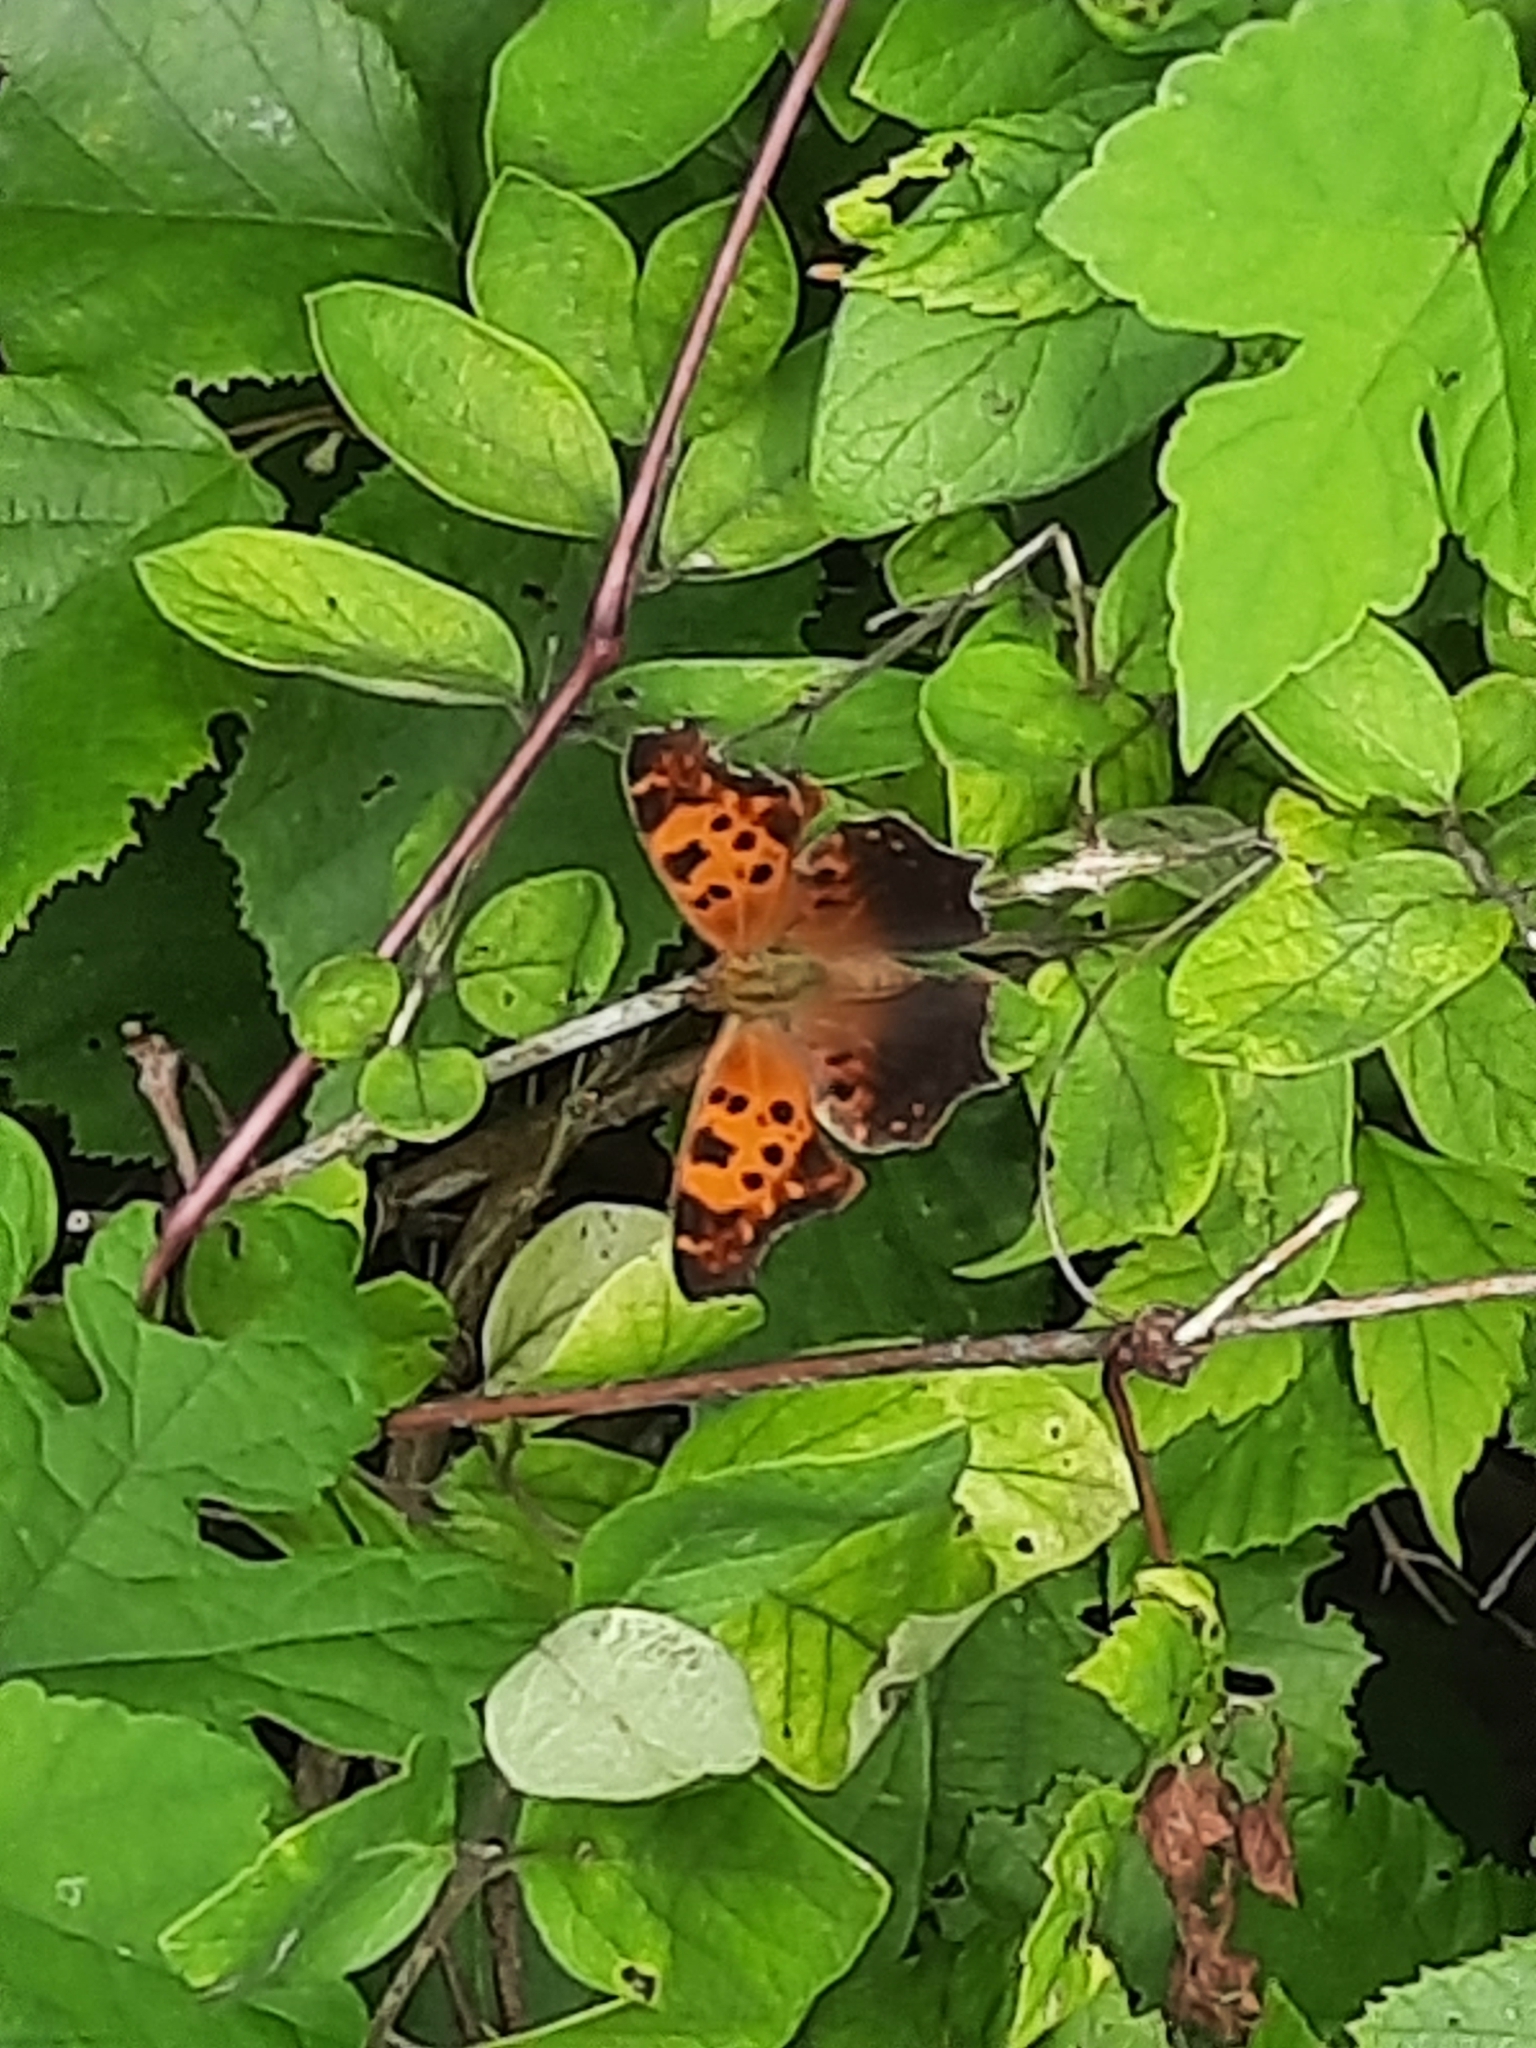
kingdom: Animalia
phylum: Arthropoda
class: Insecta
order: Lepidoptera
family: Nymphalidae
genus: Polygonia
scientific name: Polygonia comma
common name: Eastern comma
